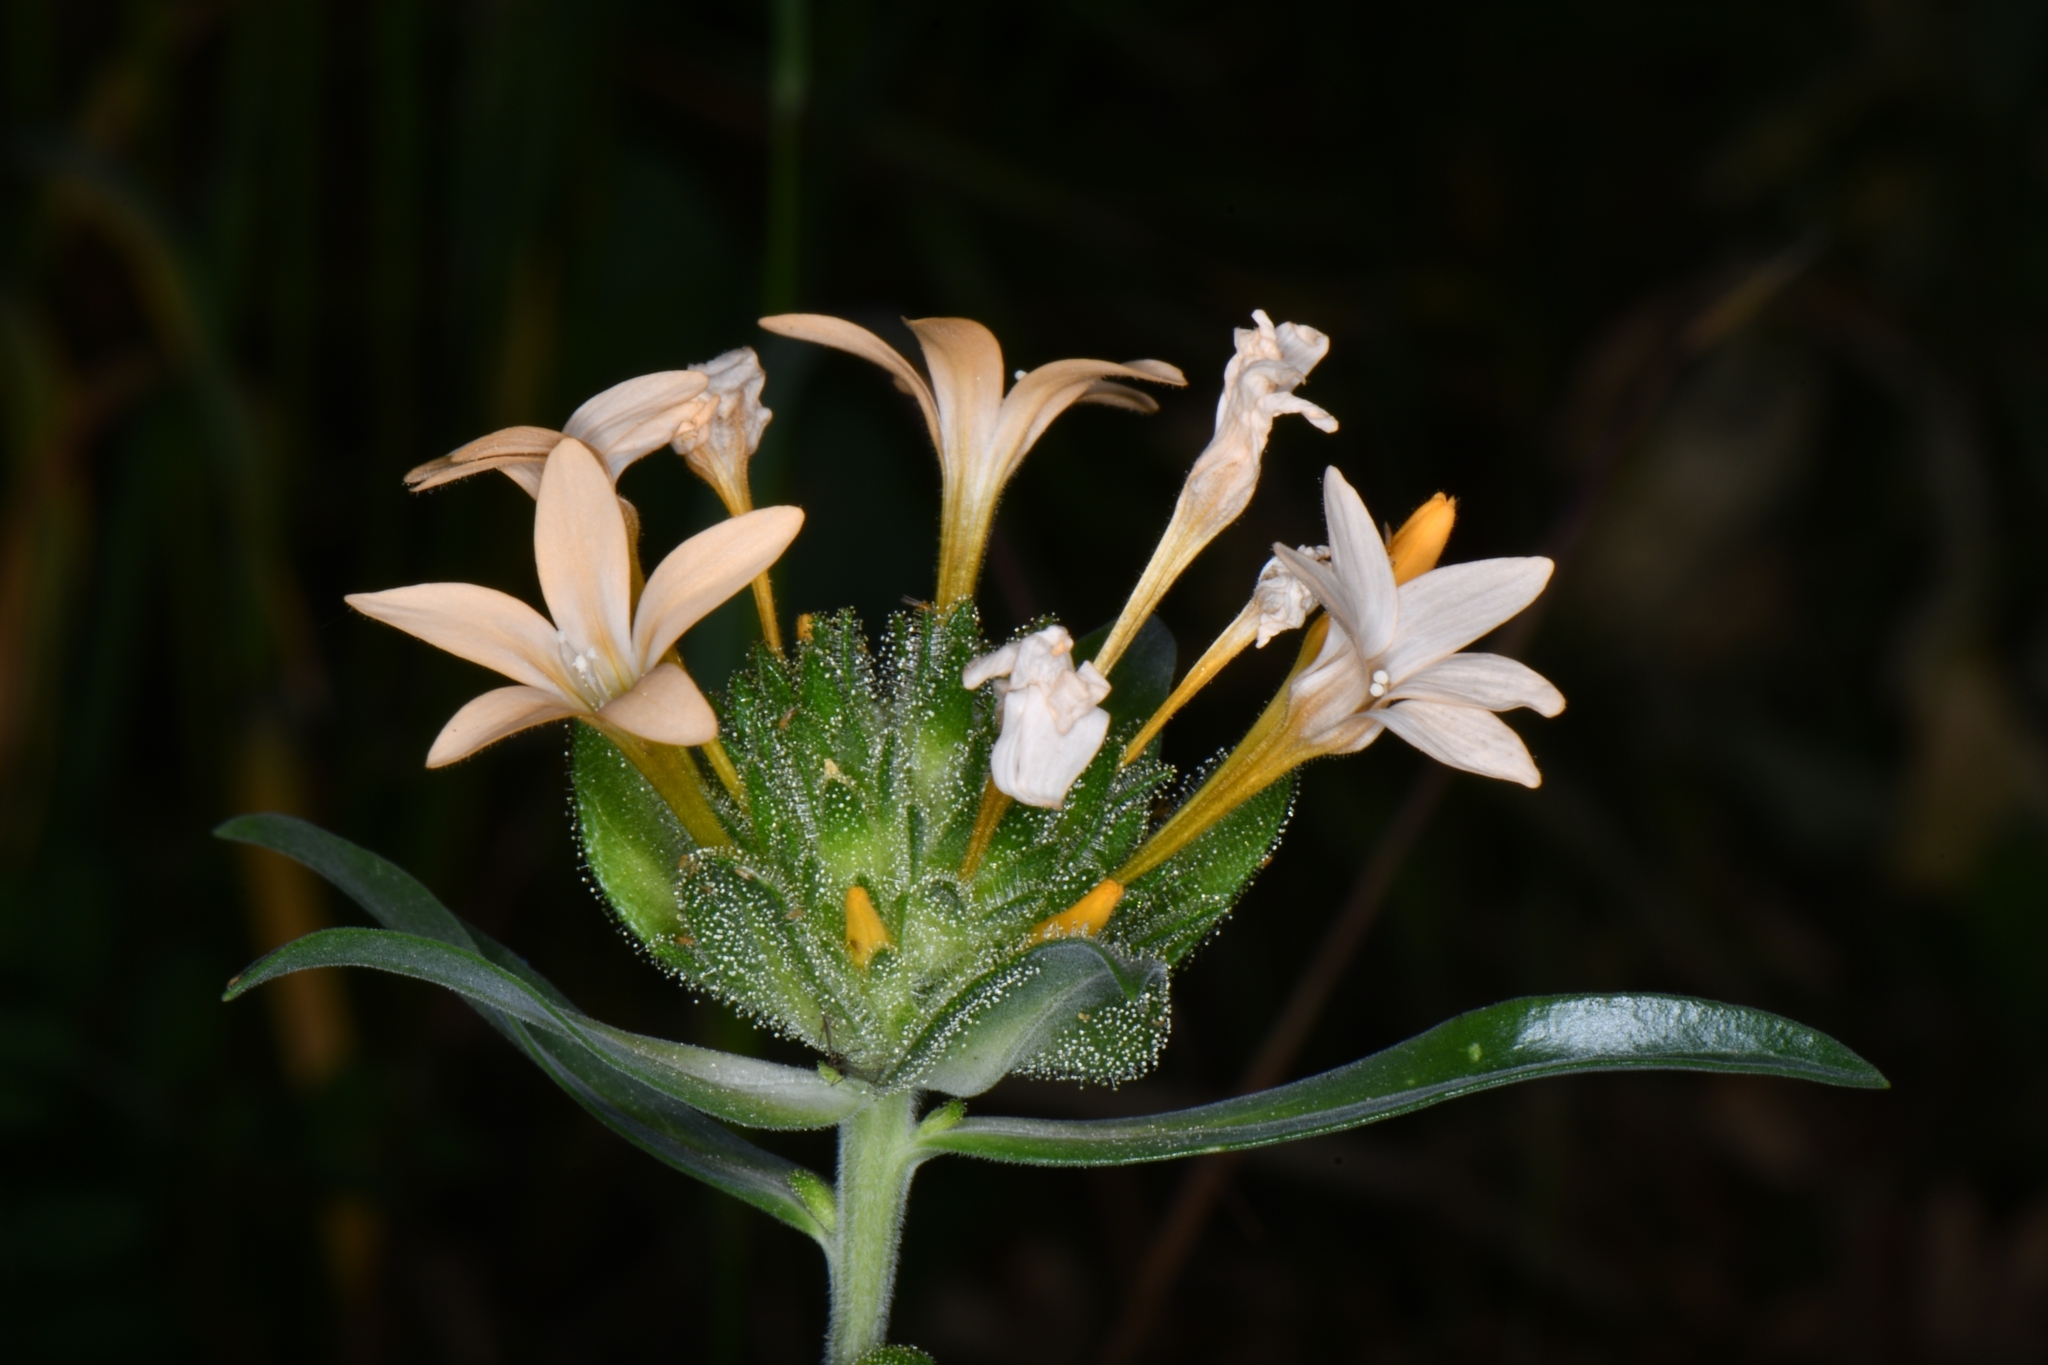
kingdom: Plantae
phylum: Tracheophyta
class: Magnoliopsida
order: Ericales
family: Polemoniaceae
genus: Collomia
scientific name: Collomia grandiflora
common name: California strawflower
